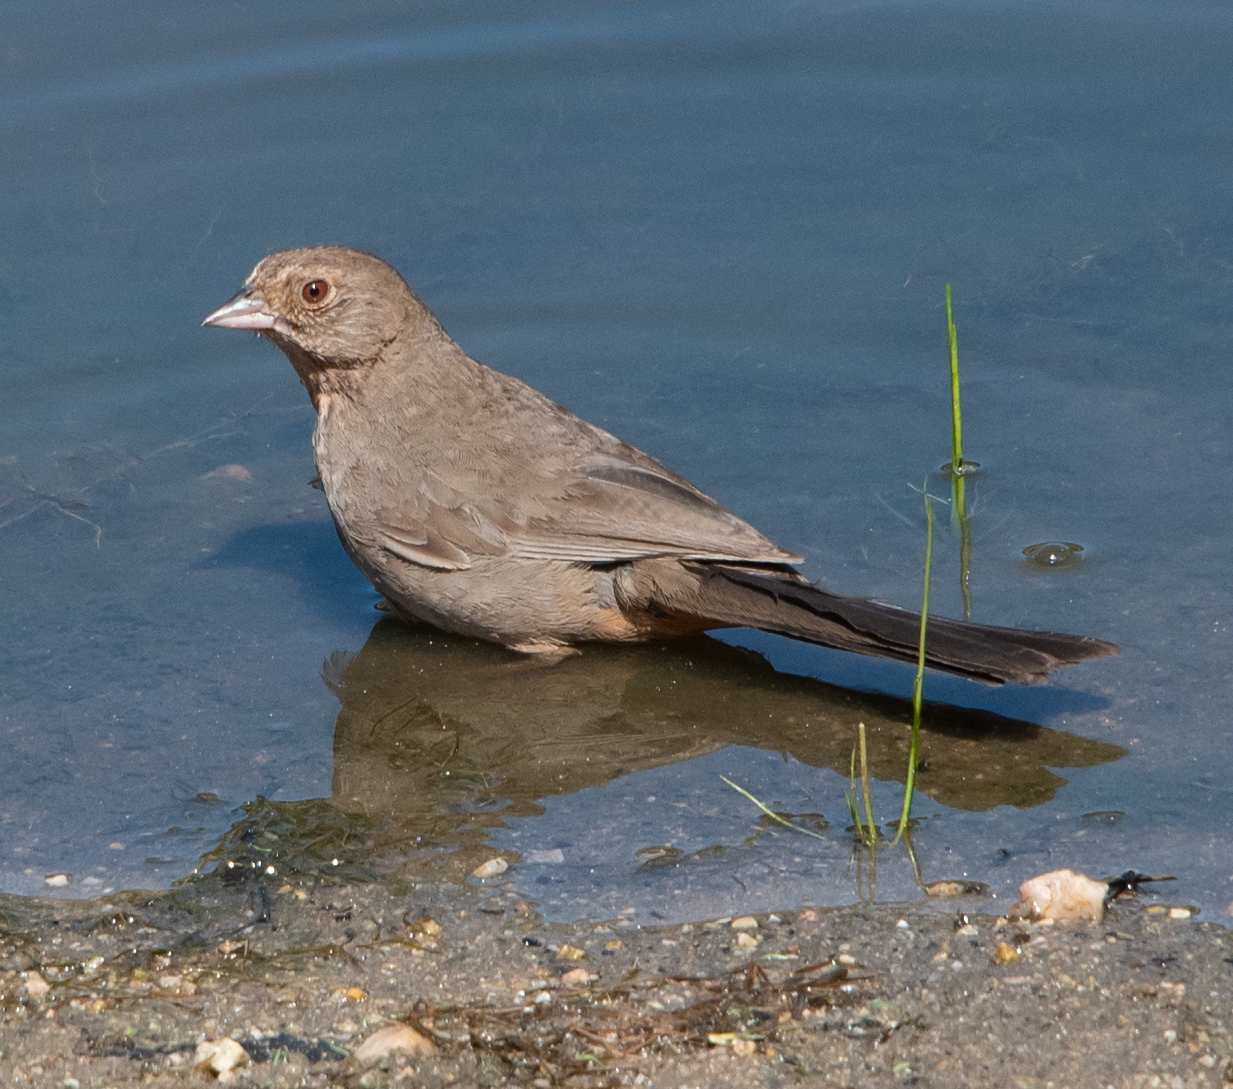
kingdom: Animalia
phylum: Chordata
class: Aves
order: Passeriformes
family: Passerellidae
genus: Melozone
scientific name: Melozone crissalis
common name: California towhee
